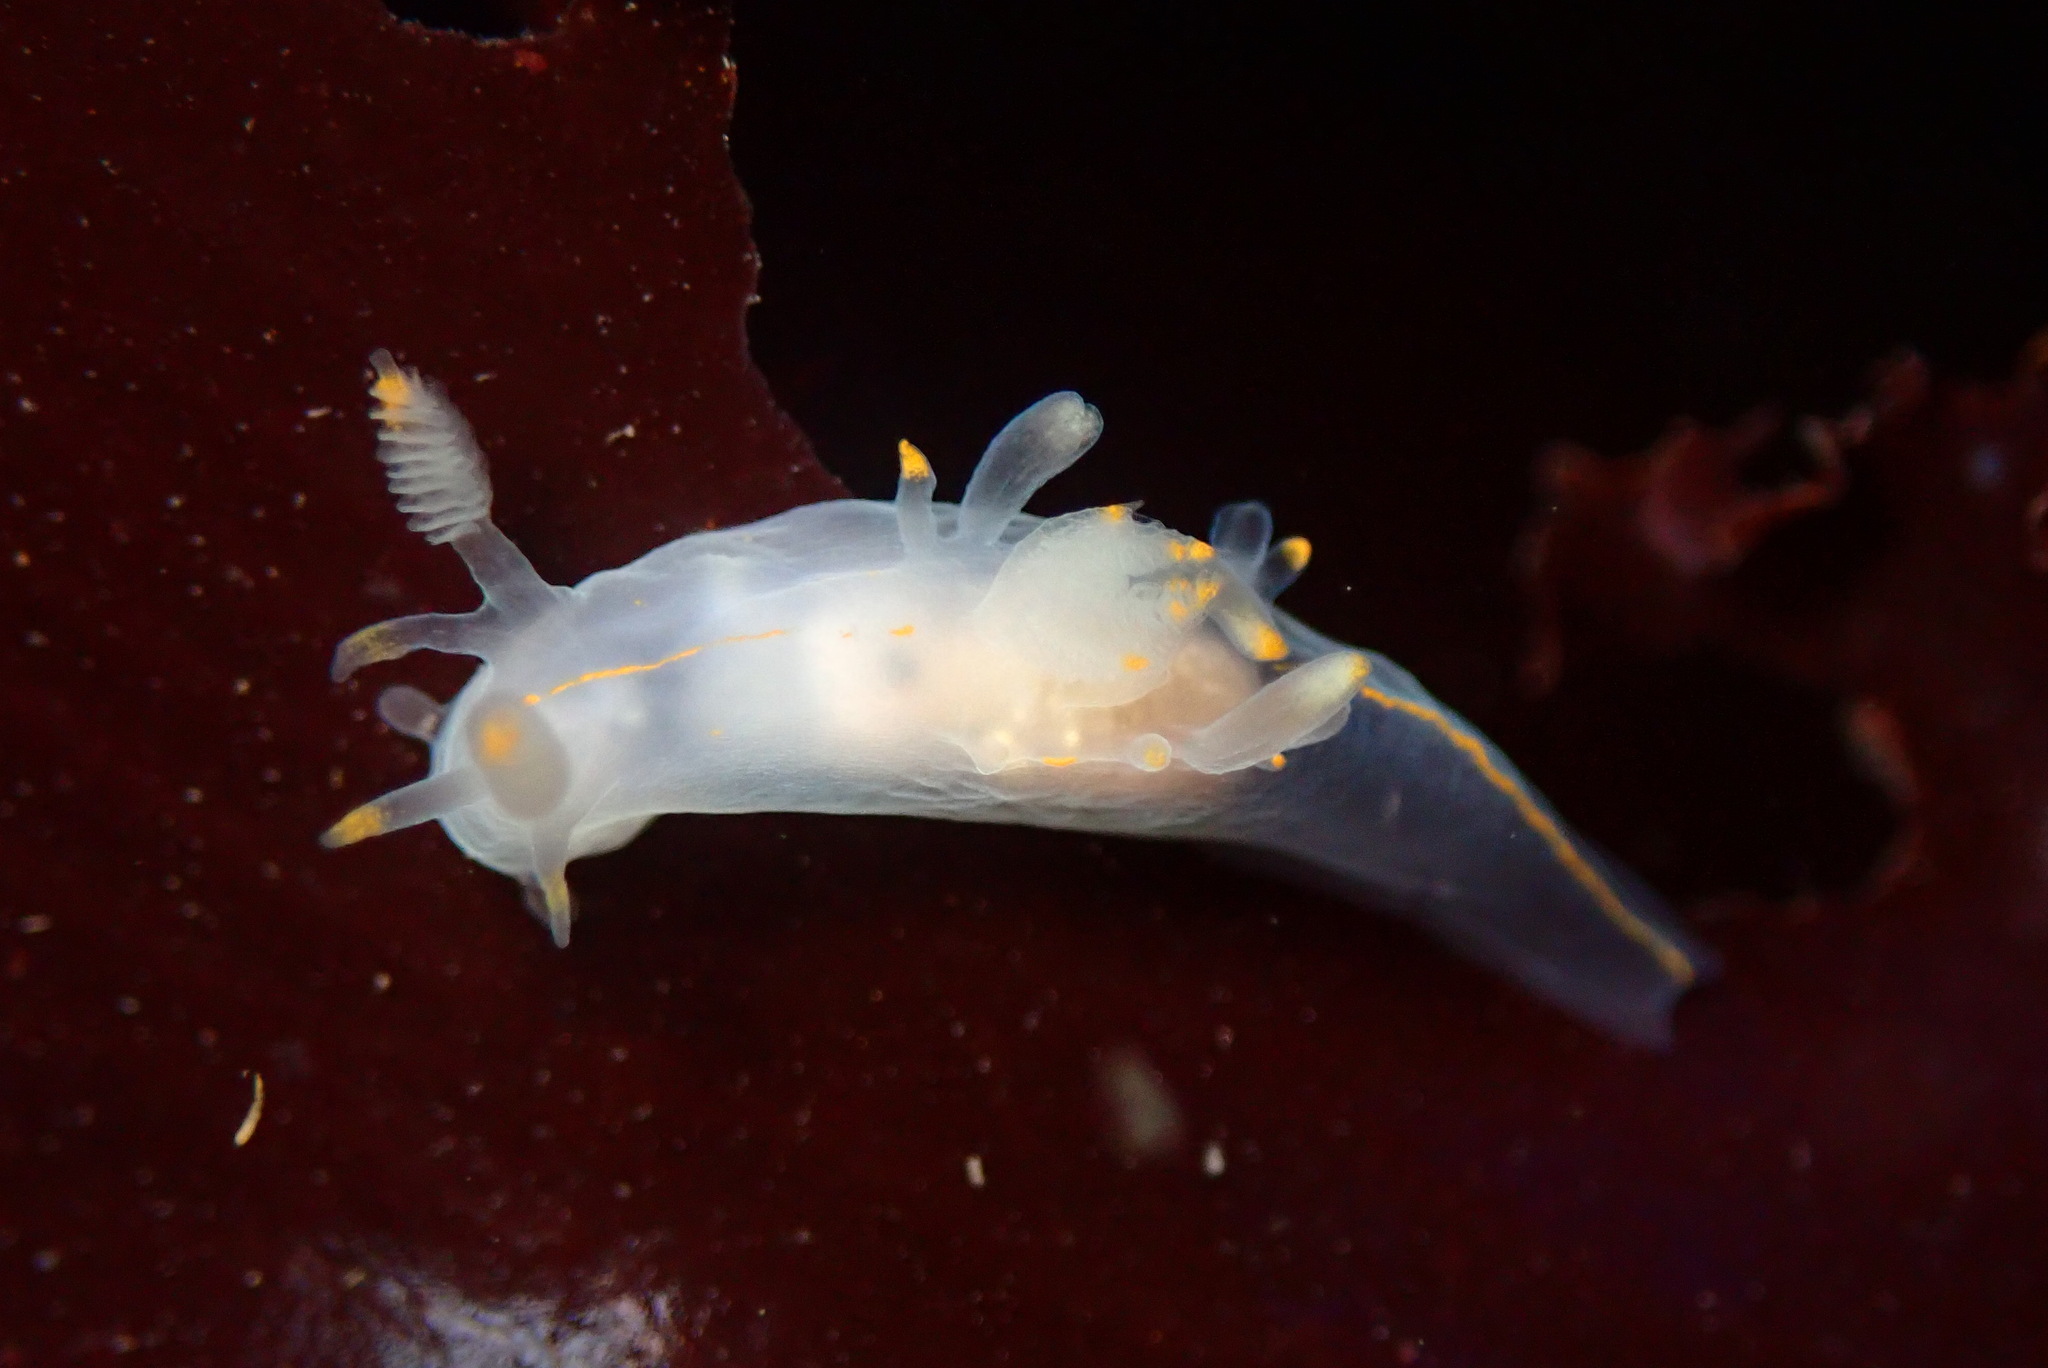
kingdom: Animalia
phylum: Mollusca
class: Gastropoda
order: Nudibranchia
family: Goniodorididae
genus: Ancula
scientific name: Ancula pacifica
